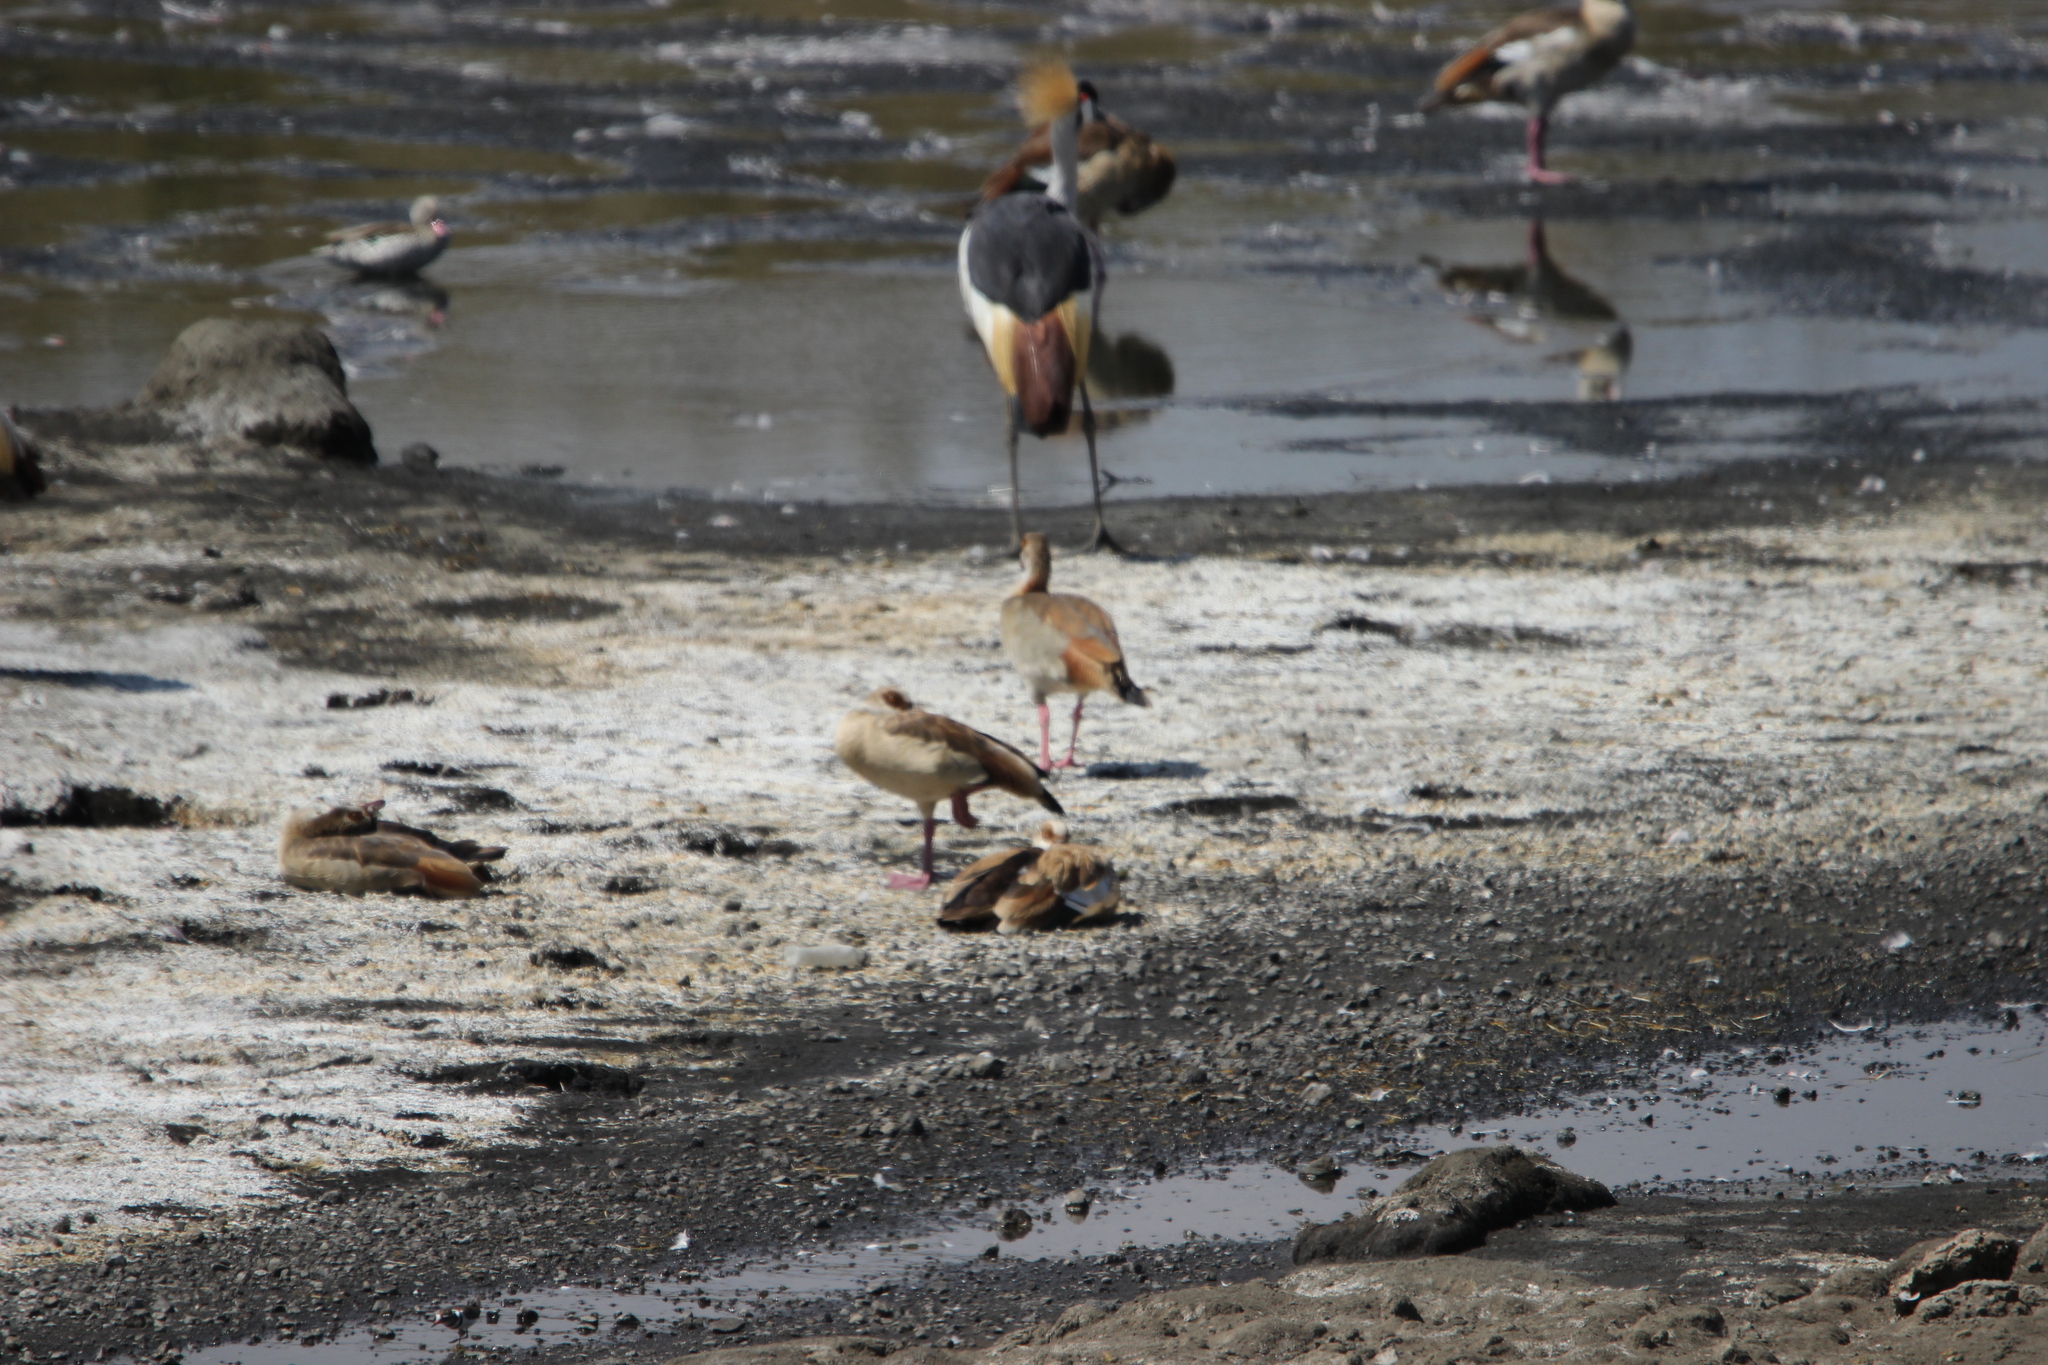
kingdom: Animalia
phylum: Chordata
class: Aves
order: Anseriformes
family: Anatidae
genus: Alopochen
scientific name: Alopochen aegyptiaca
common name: Egyptian goose
